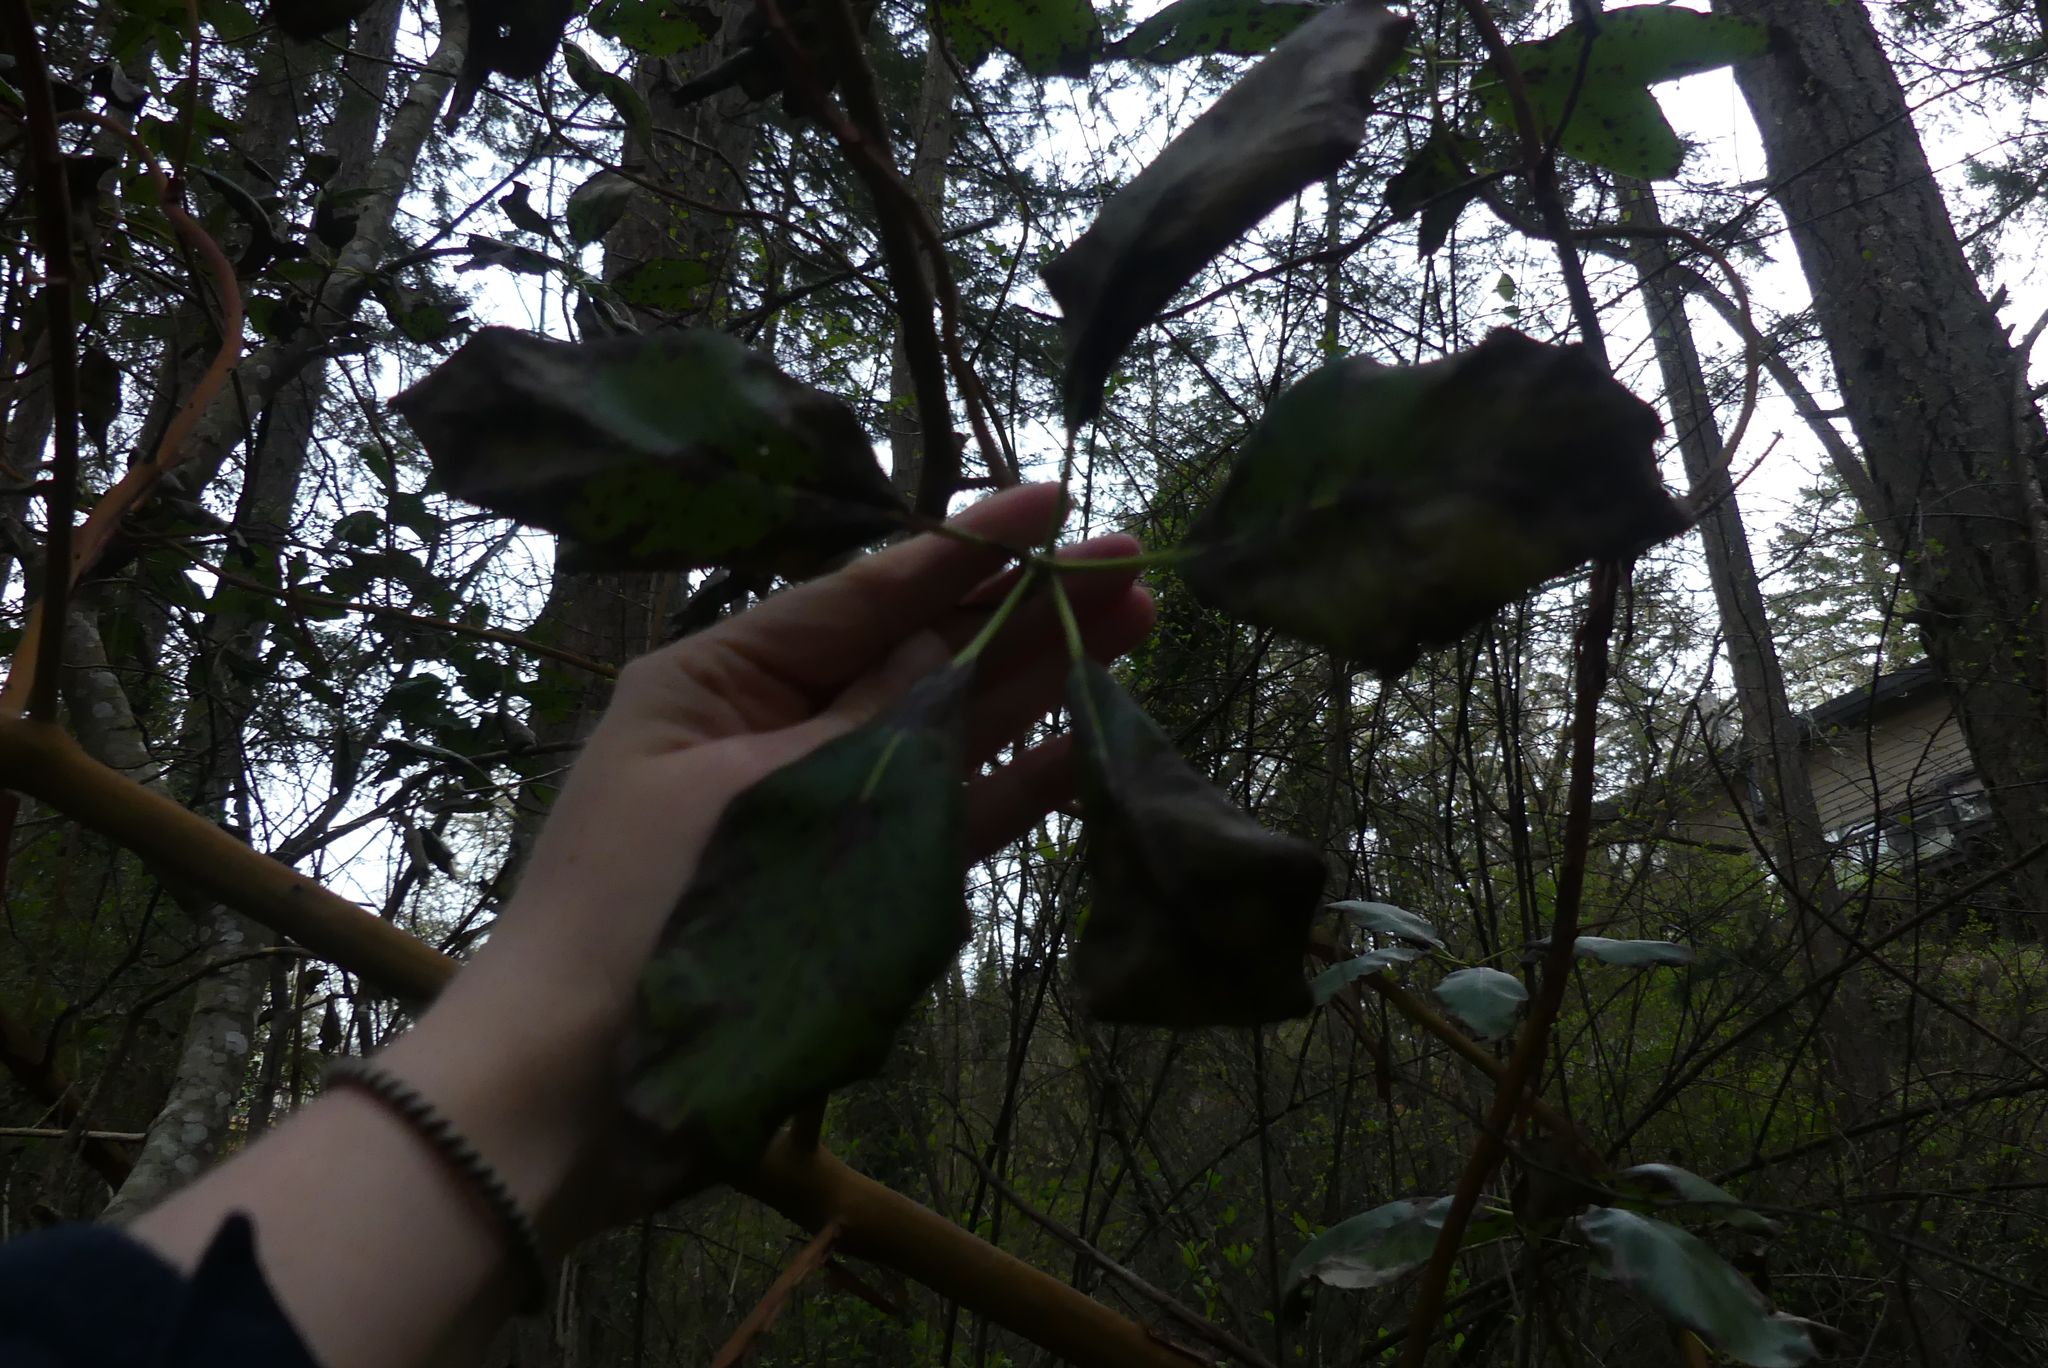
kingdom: Plantae
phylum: Tracheophyta
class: Magnoliopsida
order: Ericales
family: Ericaceae
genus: Arbutus
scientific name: Arbutus menziesii
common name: Pacific madrone
